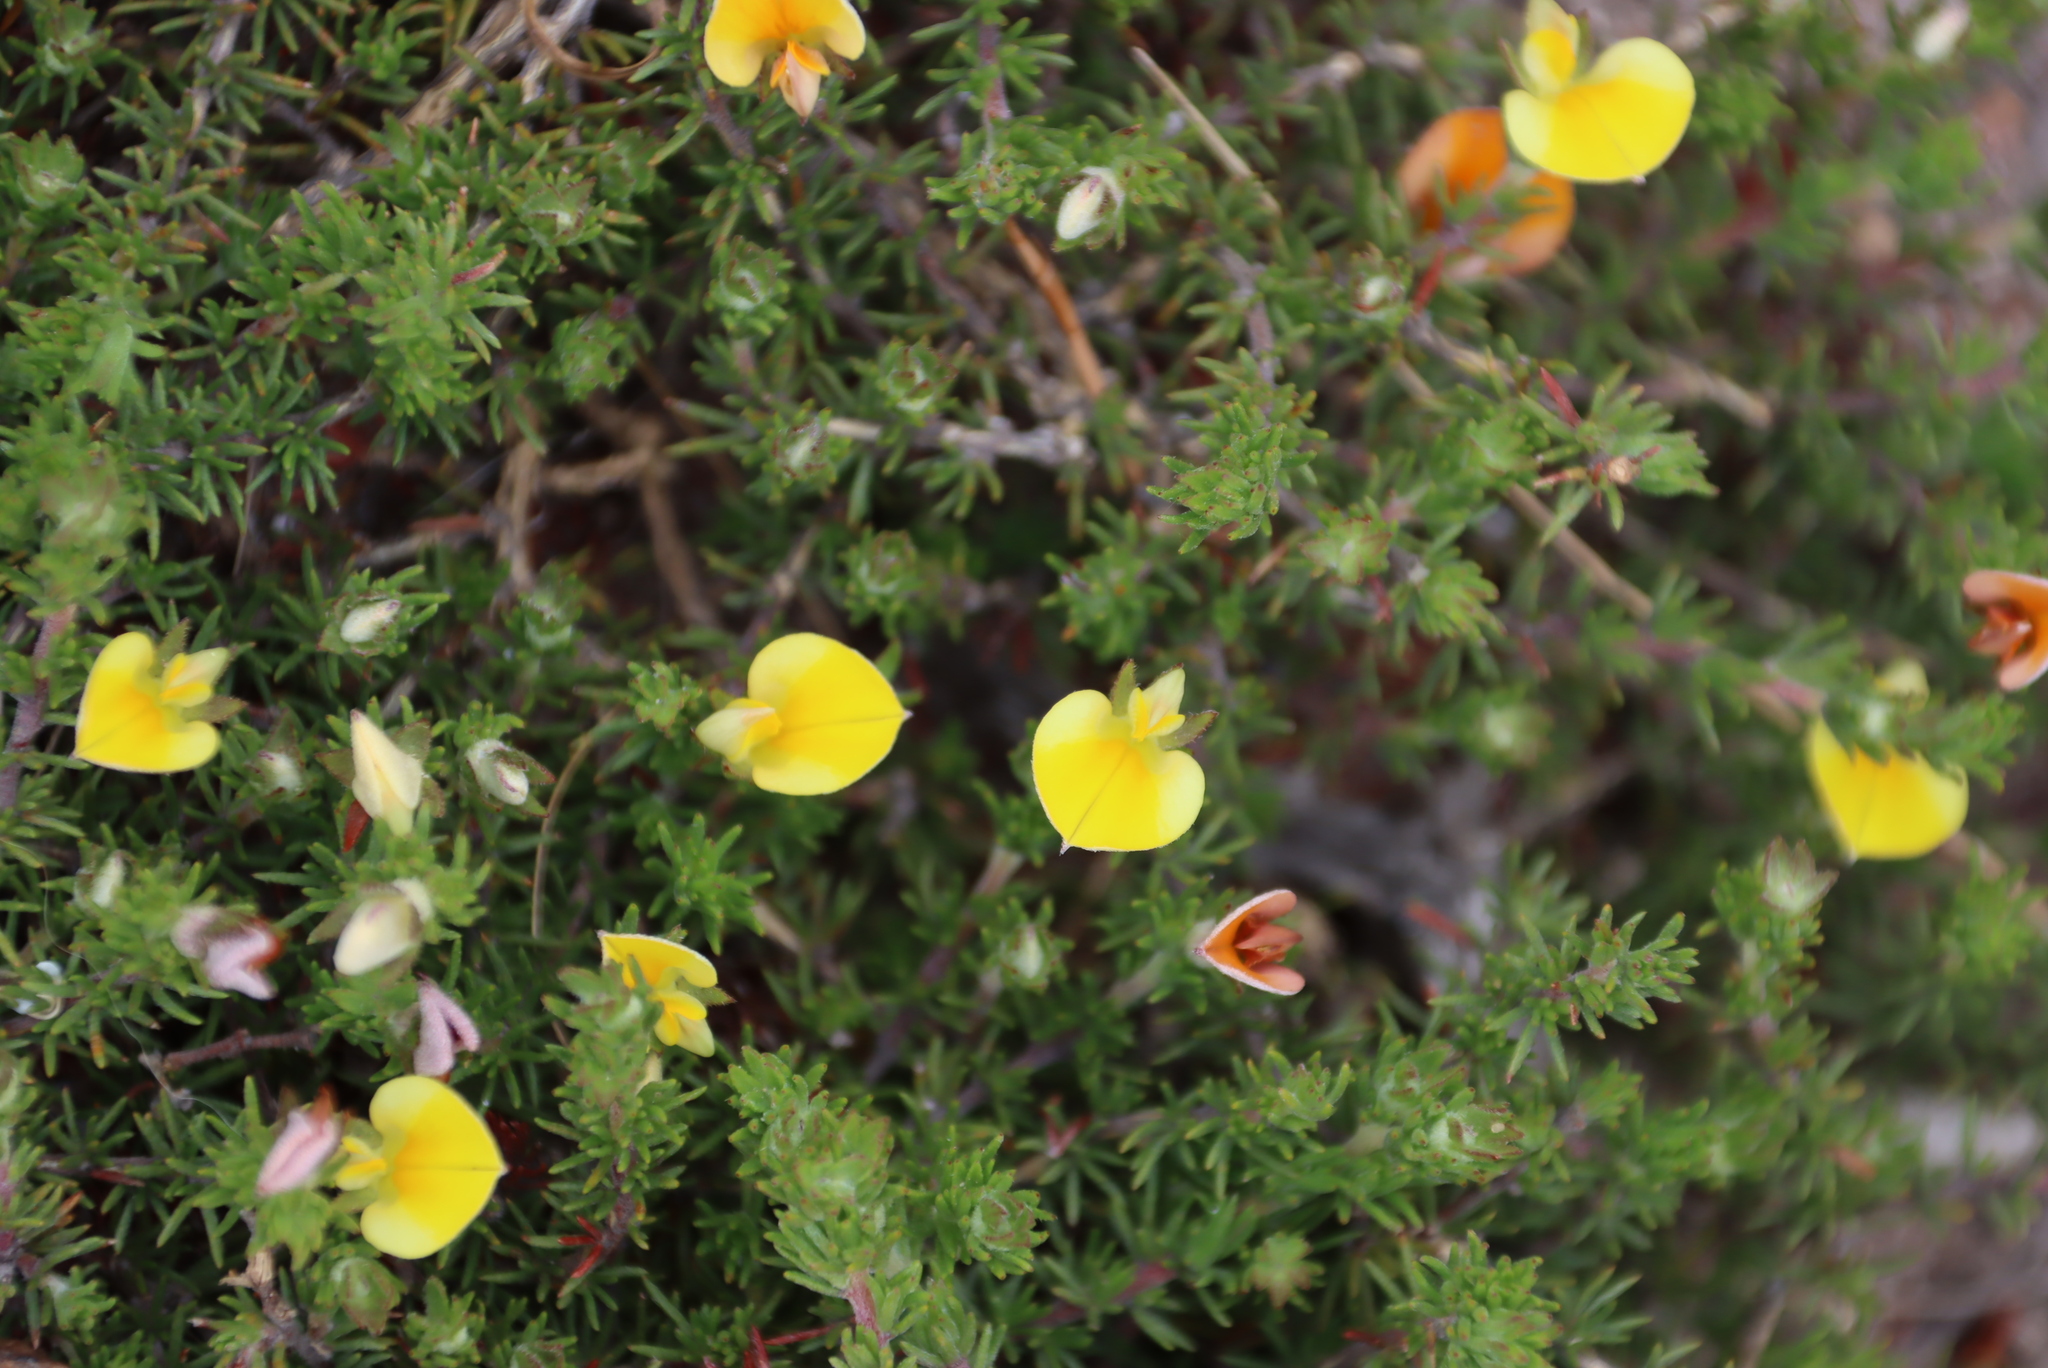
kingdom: Plantae
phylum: Tracheophyta
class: Magnoliopsida
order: Fabales
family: Fabaceae
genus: Aspalathus
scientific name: Aspalathus ciliaris
